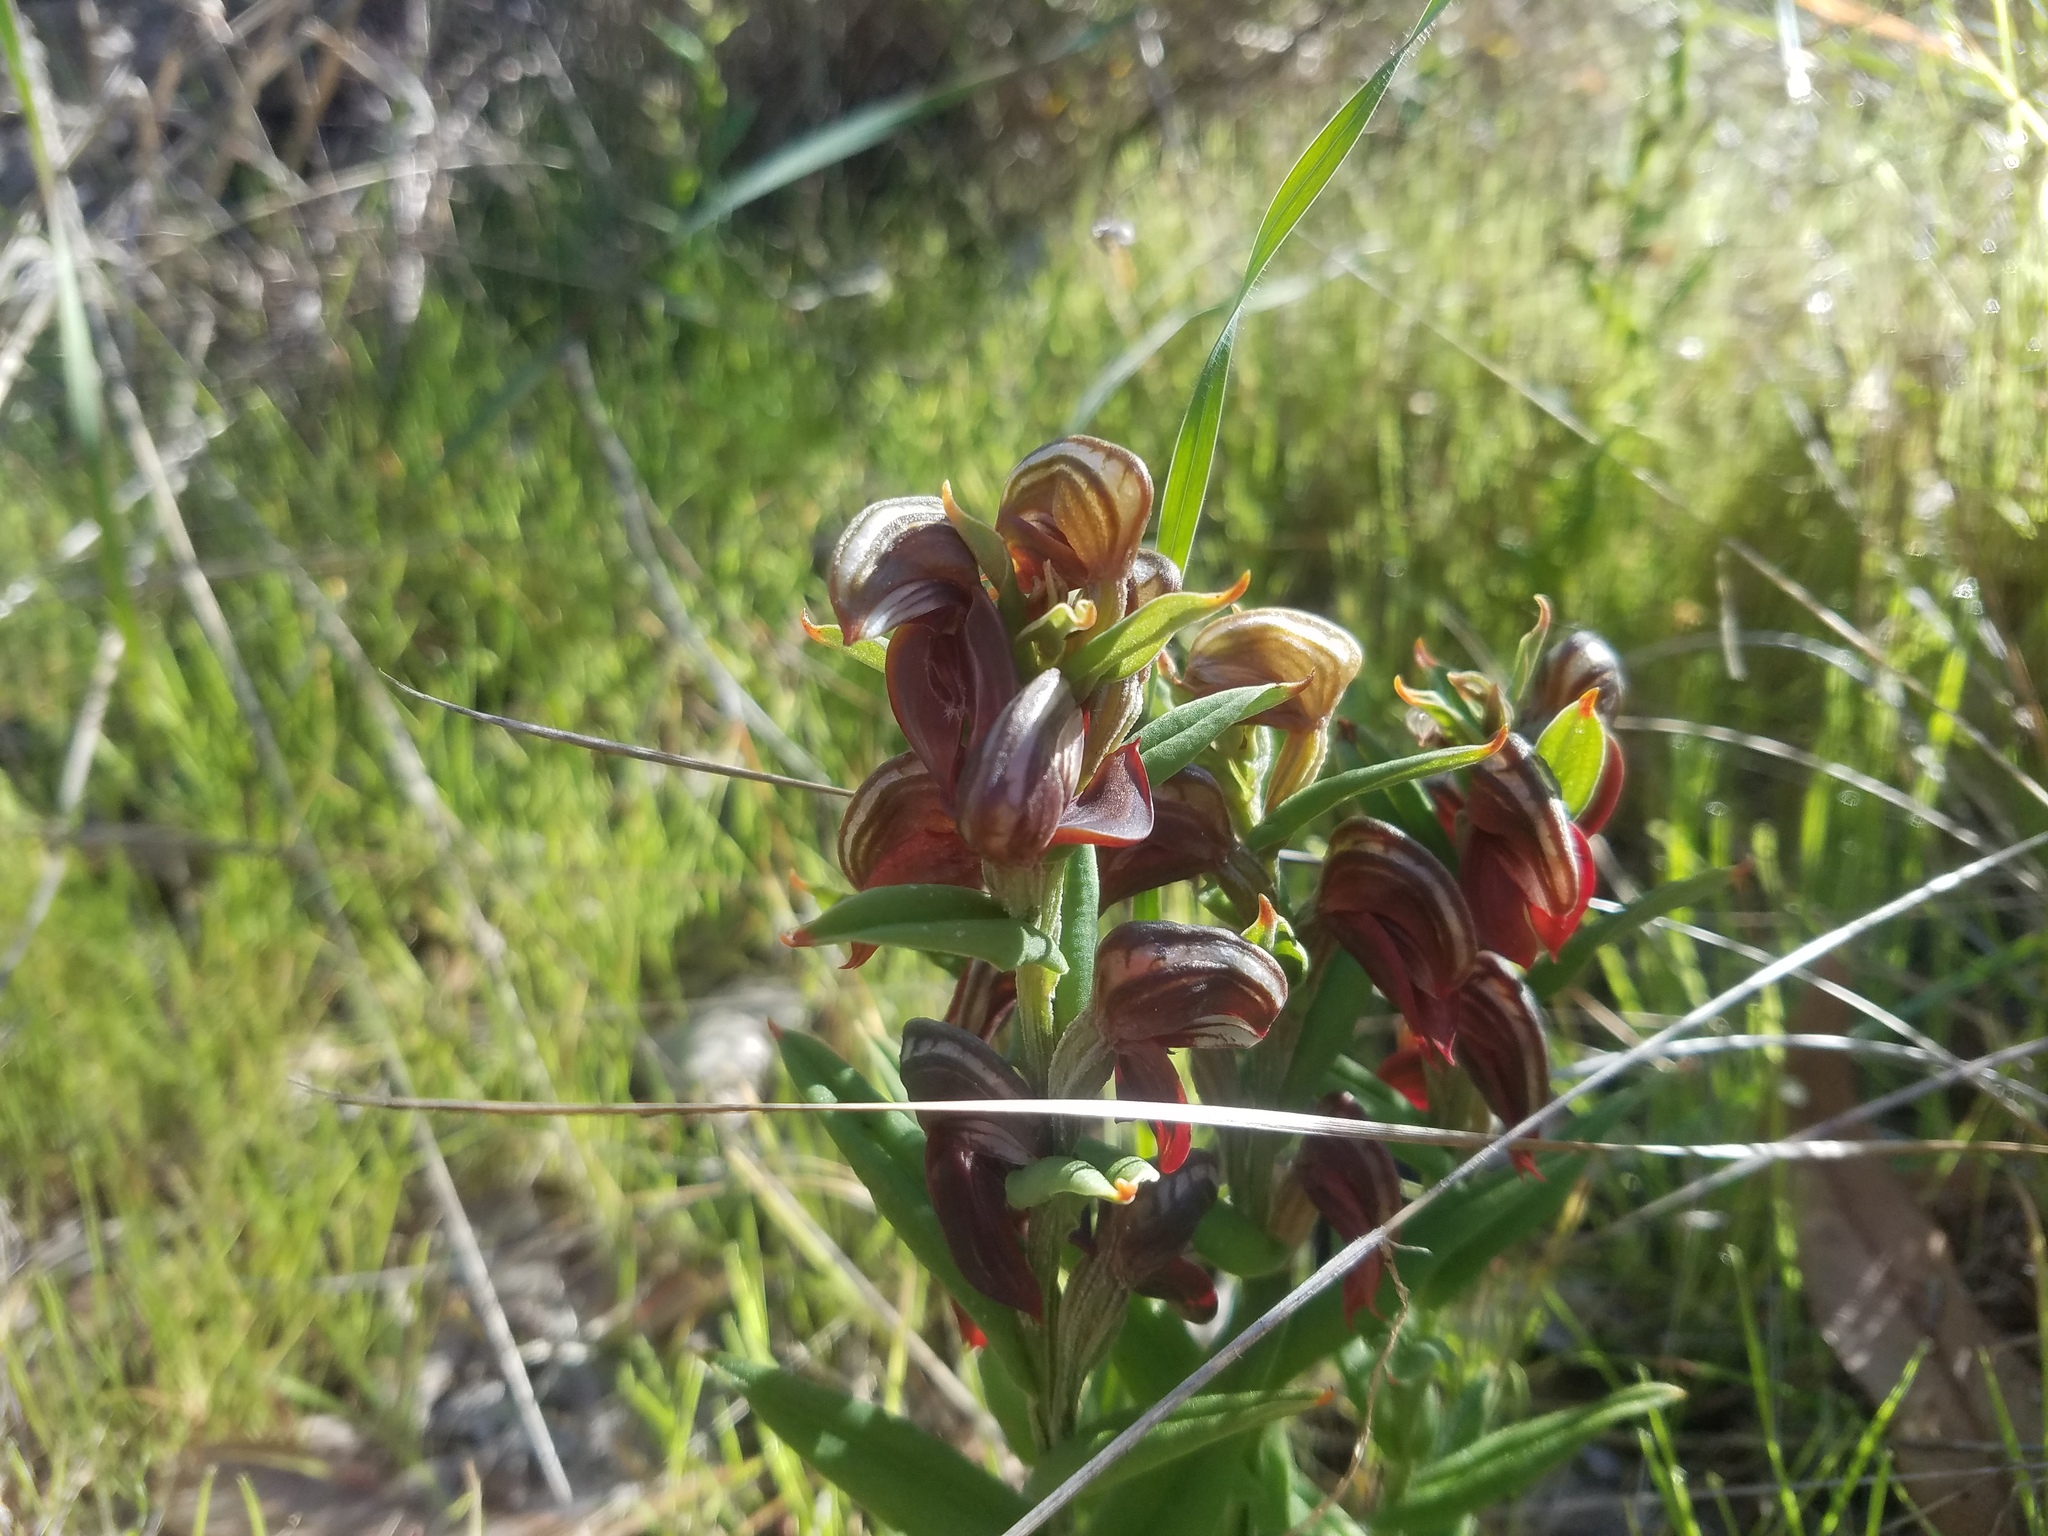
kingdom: Plantae
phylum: Tracheophyta
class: Liliopsida
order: Asparagales
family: Orchidaceae
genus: Pterostylis
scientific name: Pterostylis sanguinea
